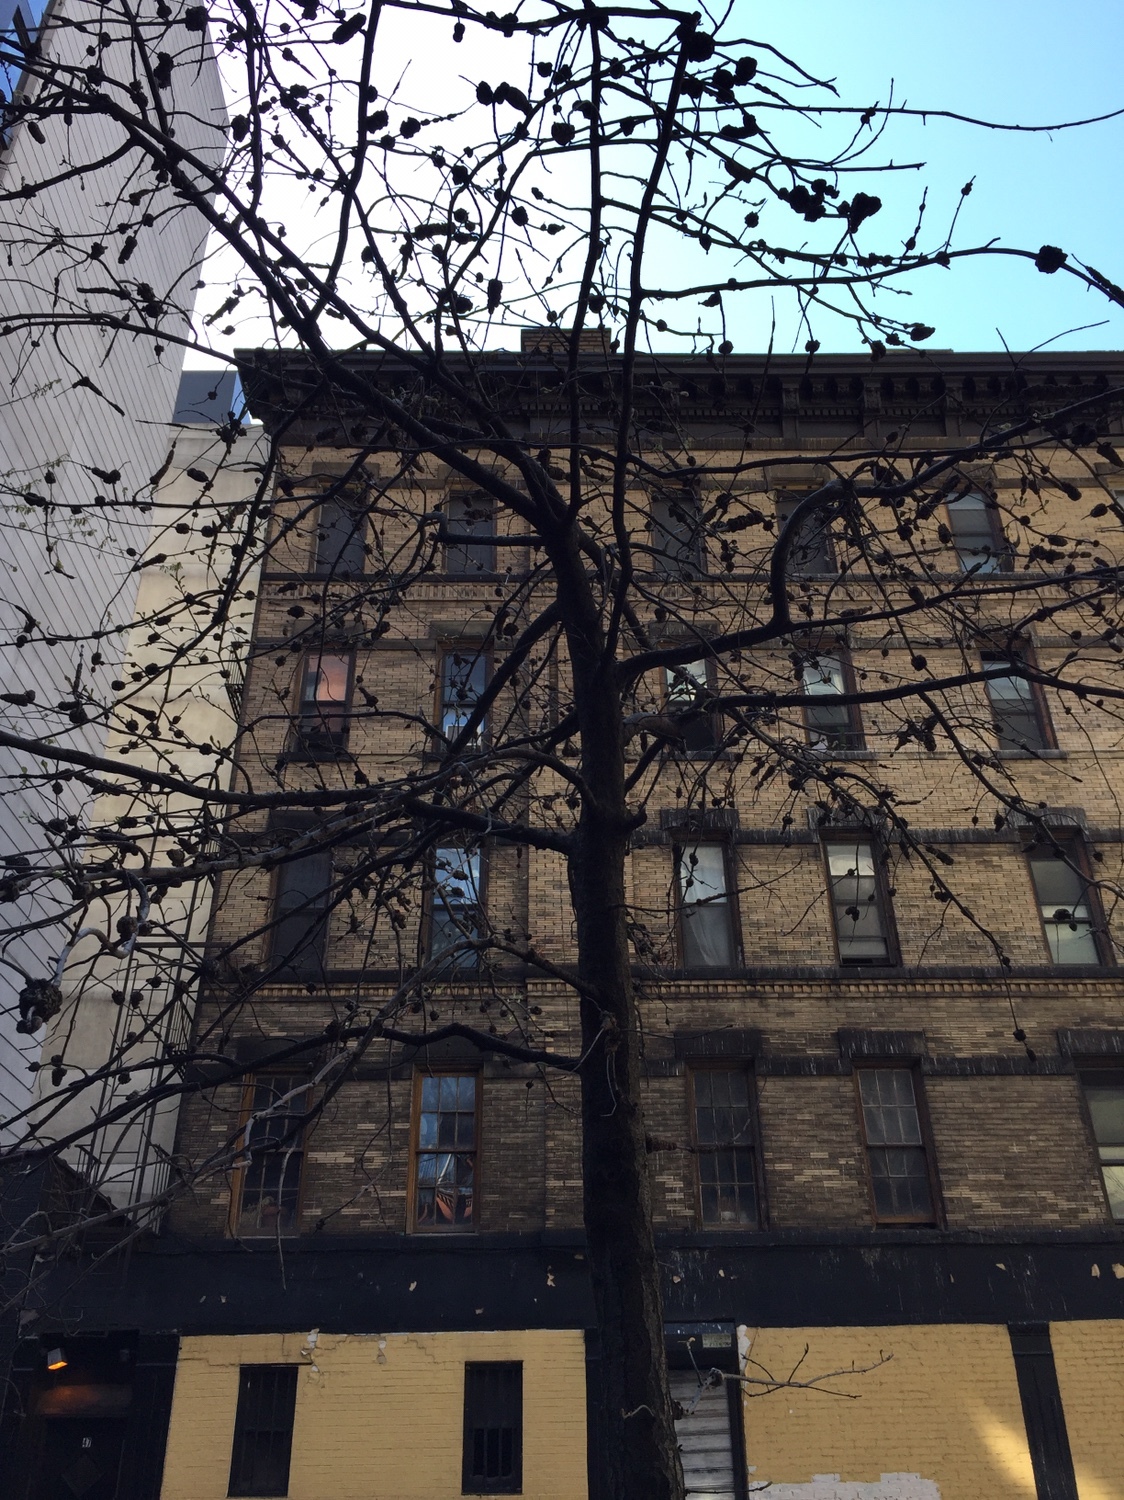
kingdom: Fungi
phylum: Ascomycota
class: Dothideomycetes
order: Venturiales
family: Venturiaceae
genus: Apiosporina
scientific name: Apiosporina morbosa
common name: Black knot
